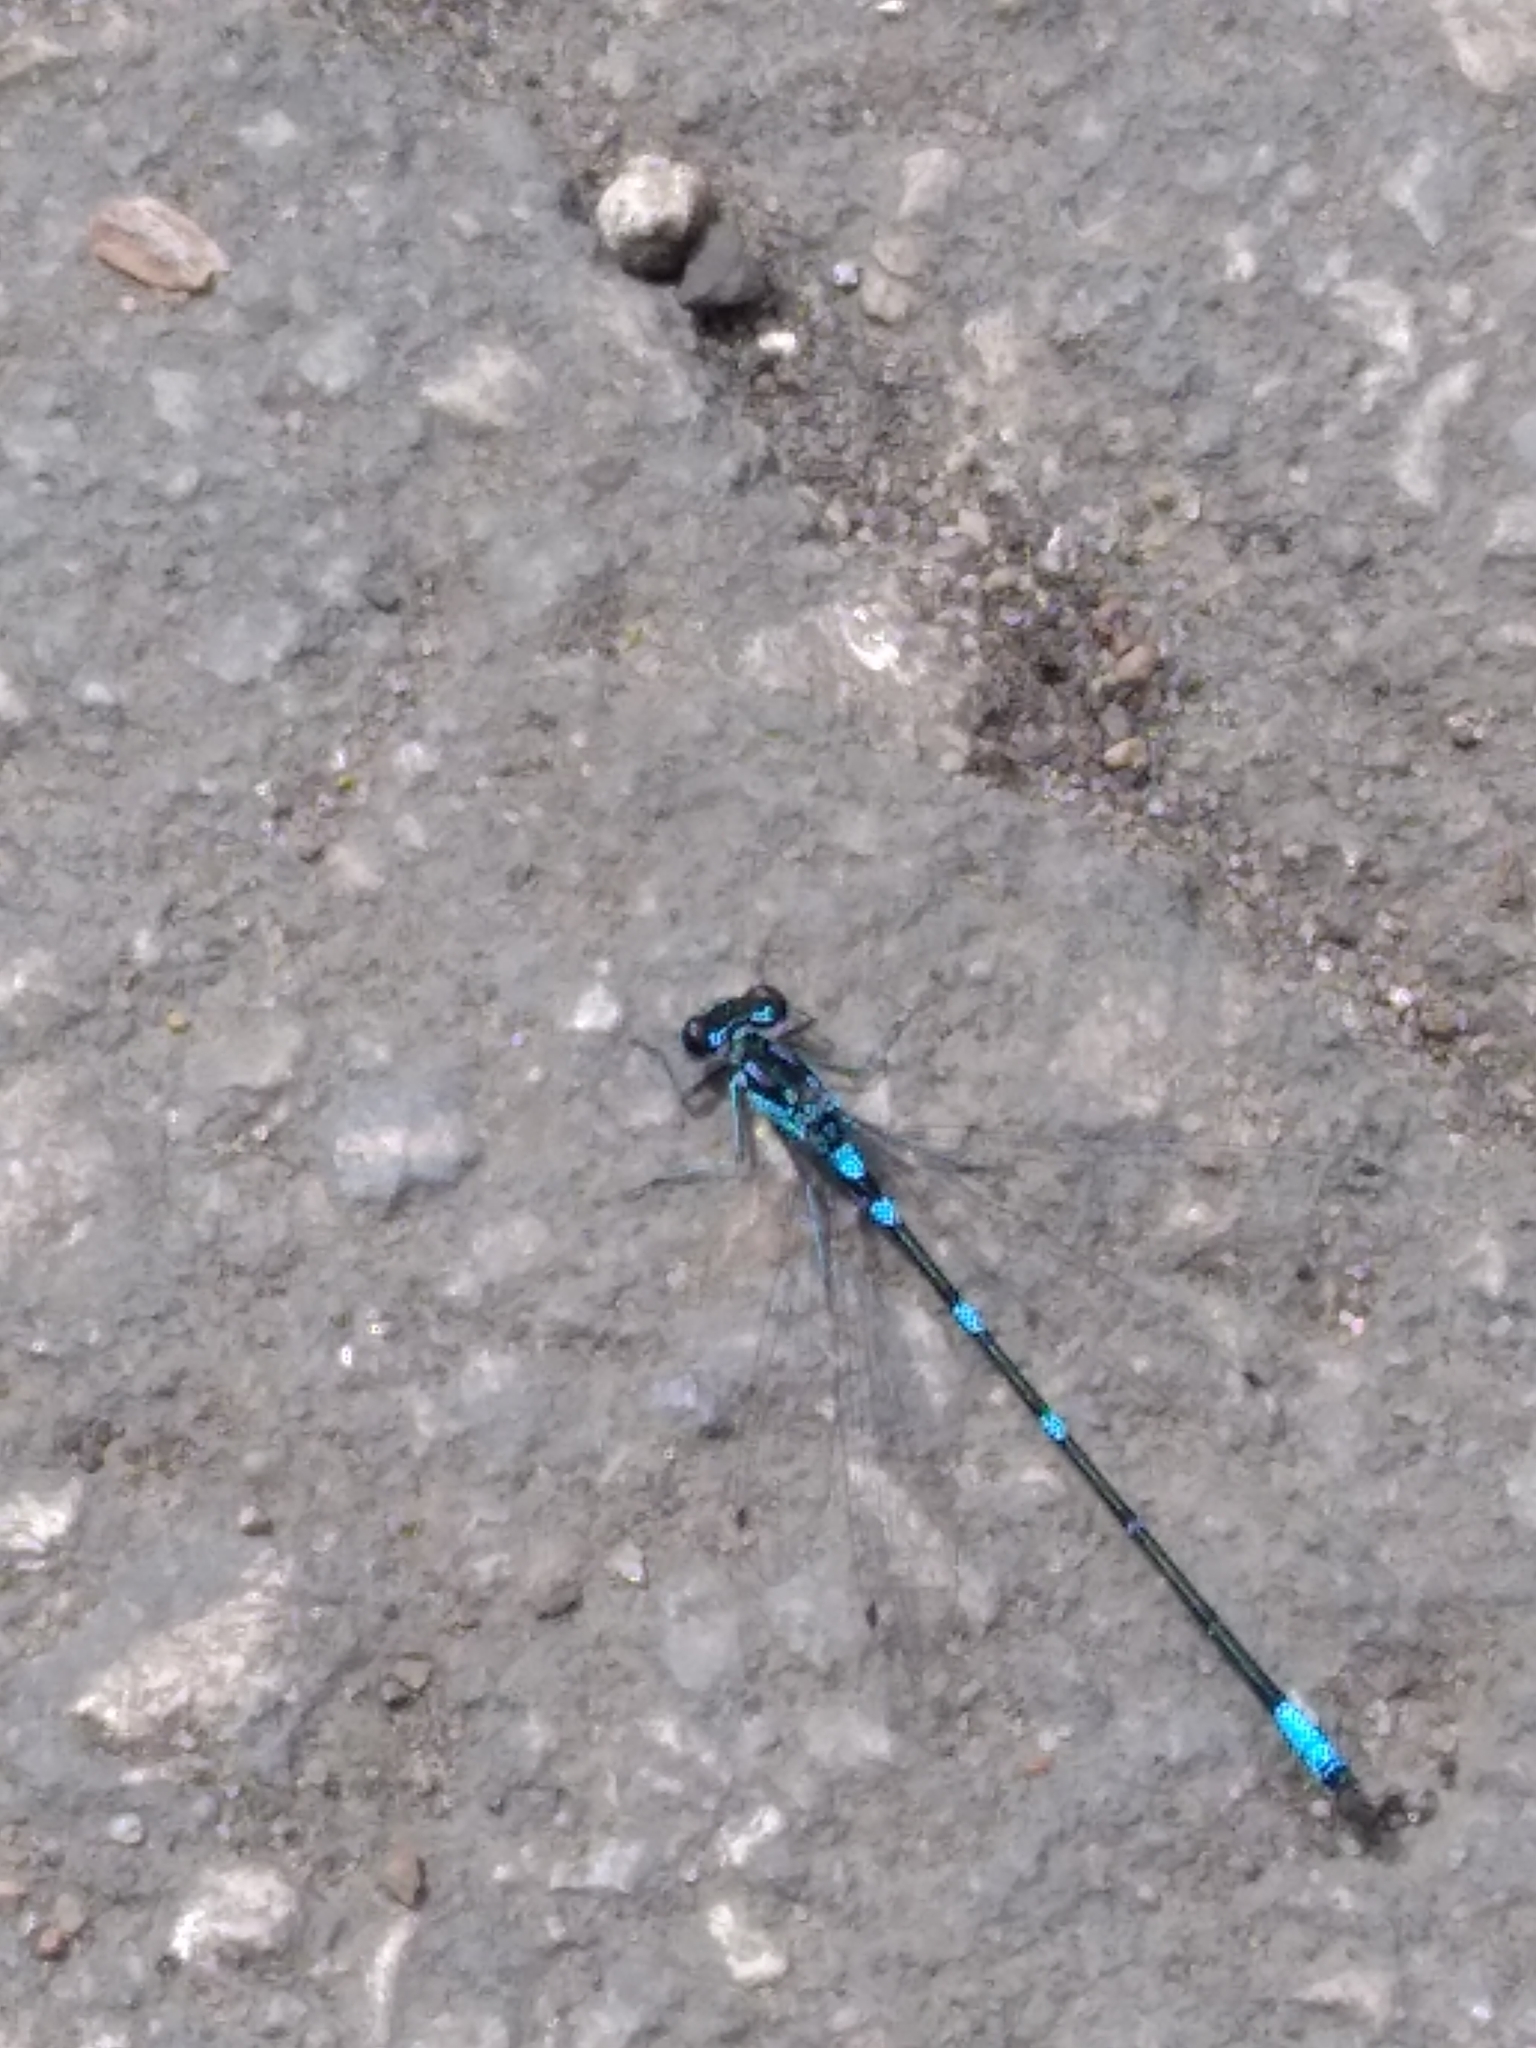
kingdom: Animalia
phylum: Arthropoda
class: Insecta
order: Odonata
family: Coenagrionidae
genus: Coenagrion
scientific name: Coenagrion pulchellum
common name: Variable bluet
